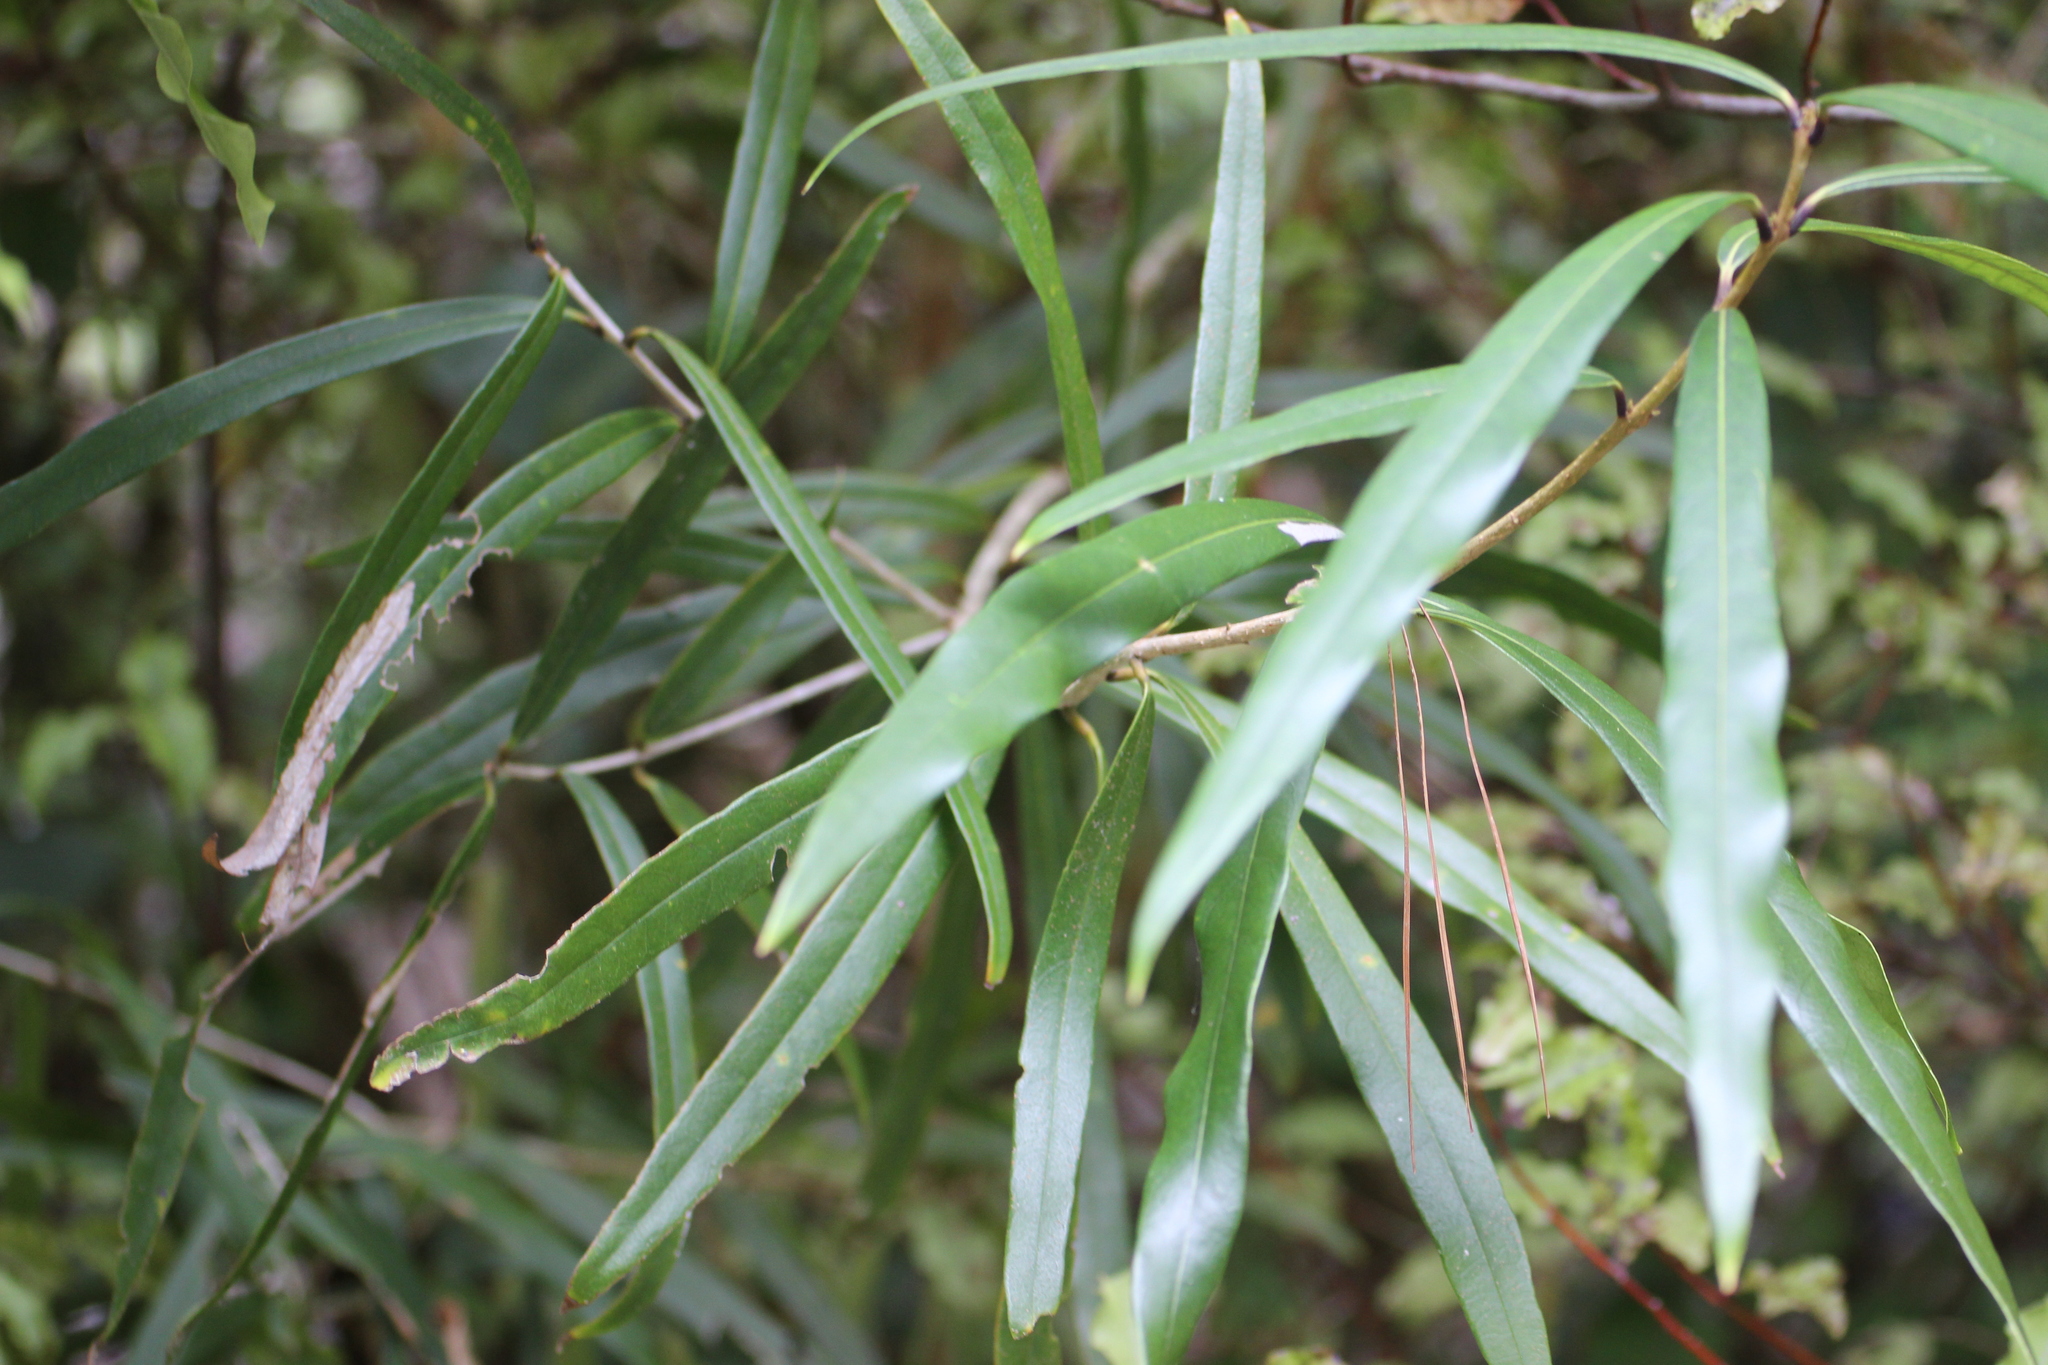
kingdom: Plantae
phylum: Tracheophyta
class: Magnoliopsida
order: Lamiales
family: Oleaceae
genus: Nestegis
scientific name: Nestegis cunninghamii
